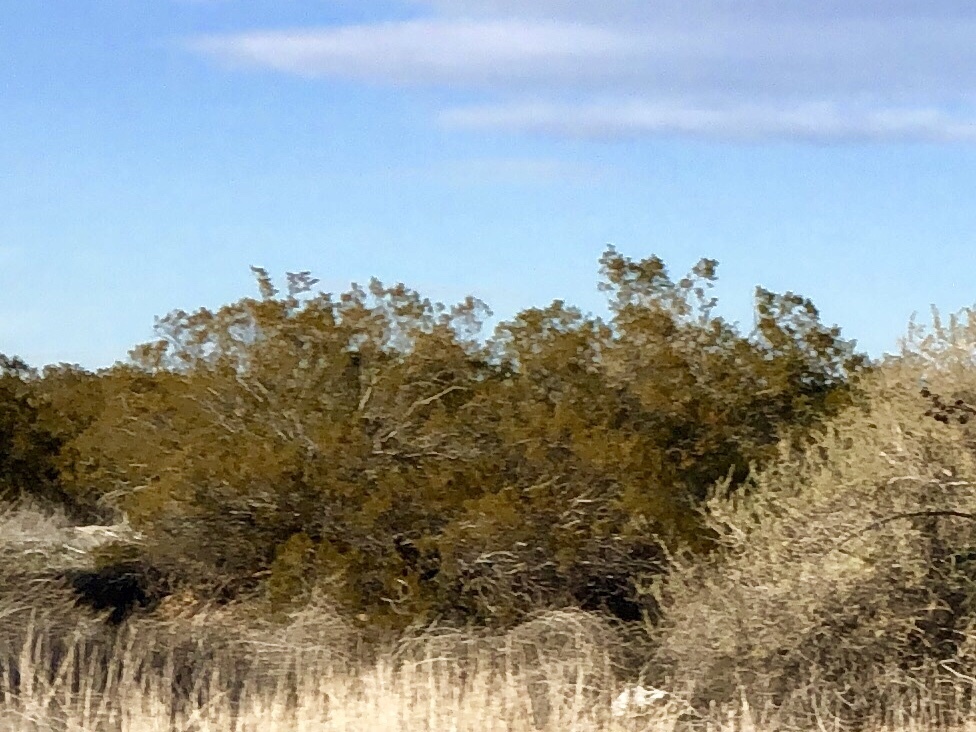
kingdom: Plantae
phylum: Tracheophyta
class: Magnoliopsida
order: Zygophyllales
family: Zygophyllaceae
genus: Larrea
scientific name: Larrea tridentata
